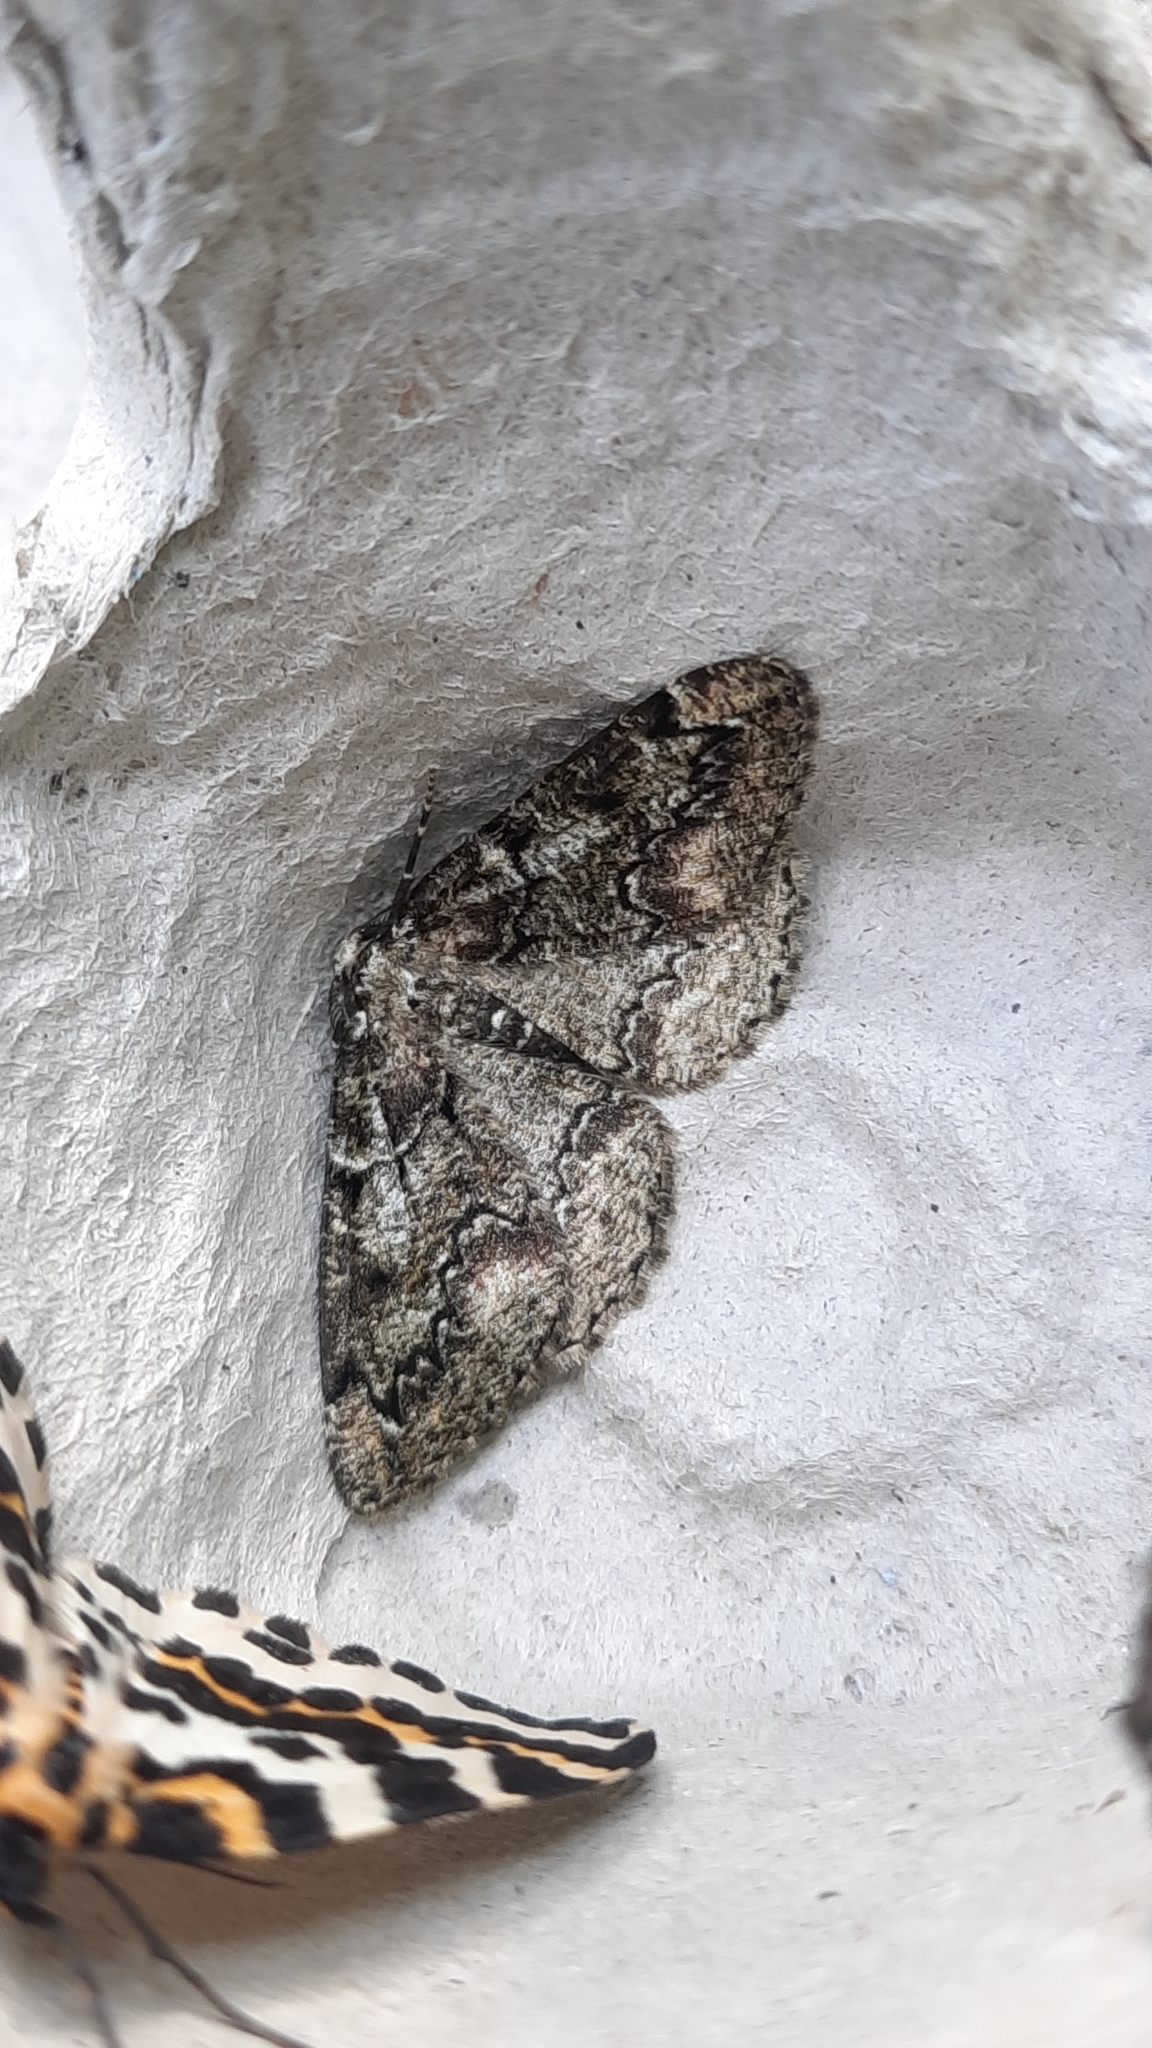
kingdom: Animalia
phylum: Arthropoda
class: Insecta
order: Lepidoptera
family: Geometridae
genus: Cleorodes
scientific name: Cleorodes lichenaria
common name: Brussels lace
